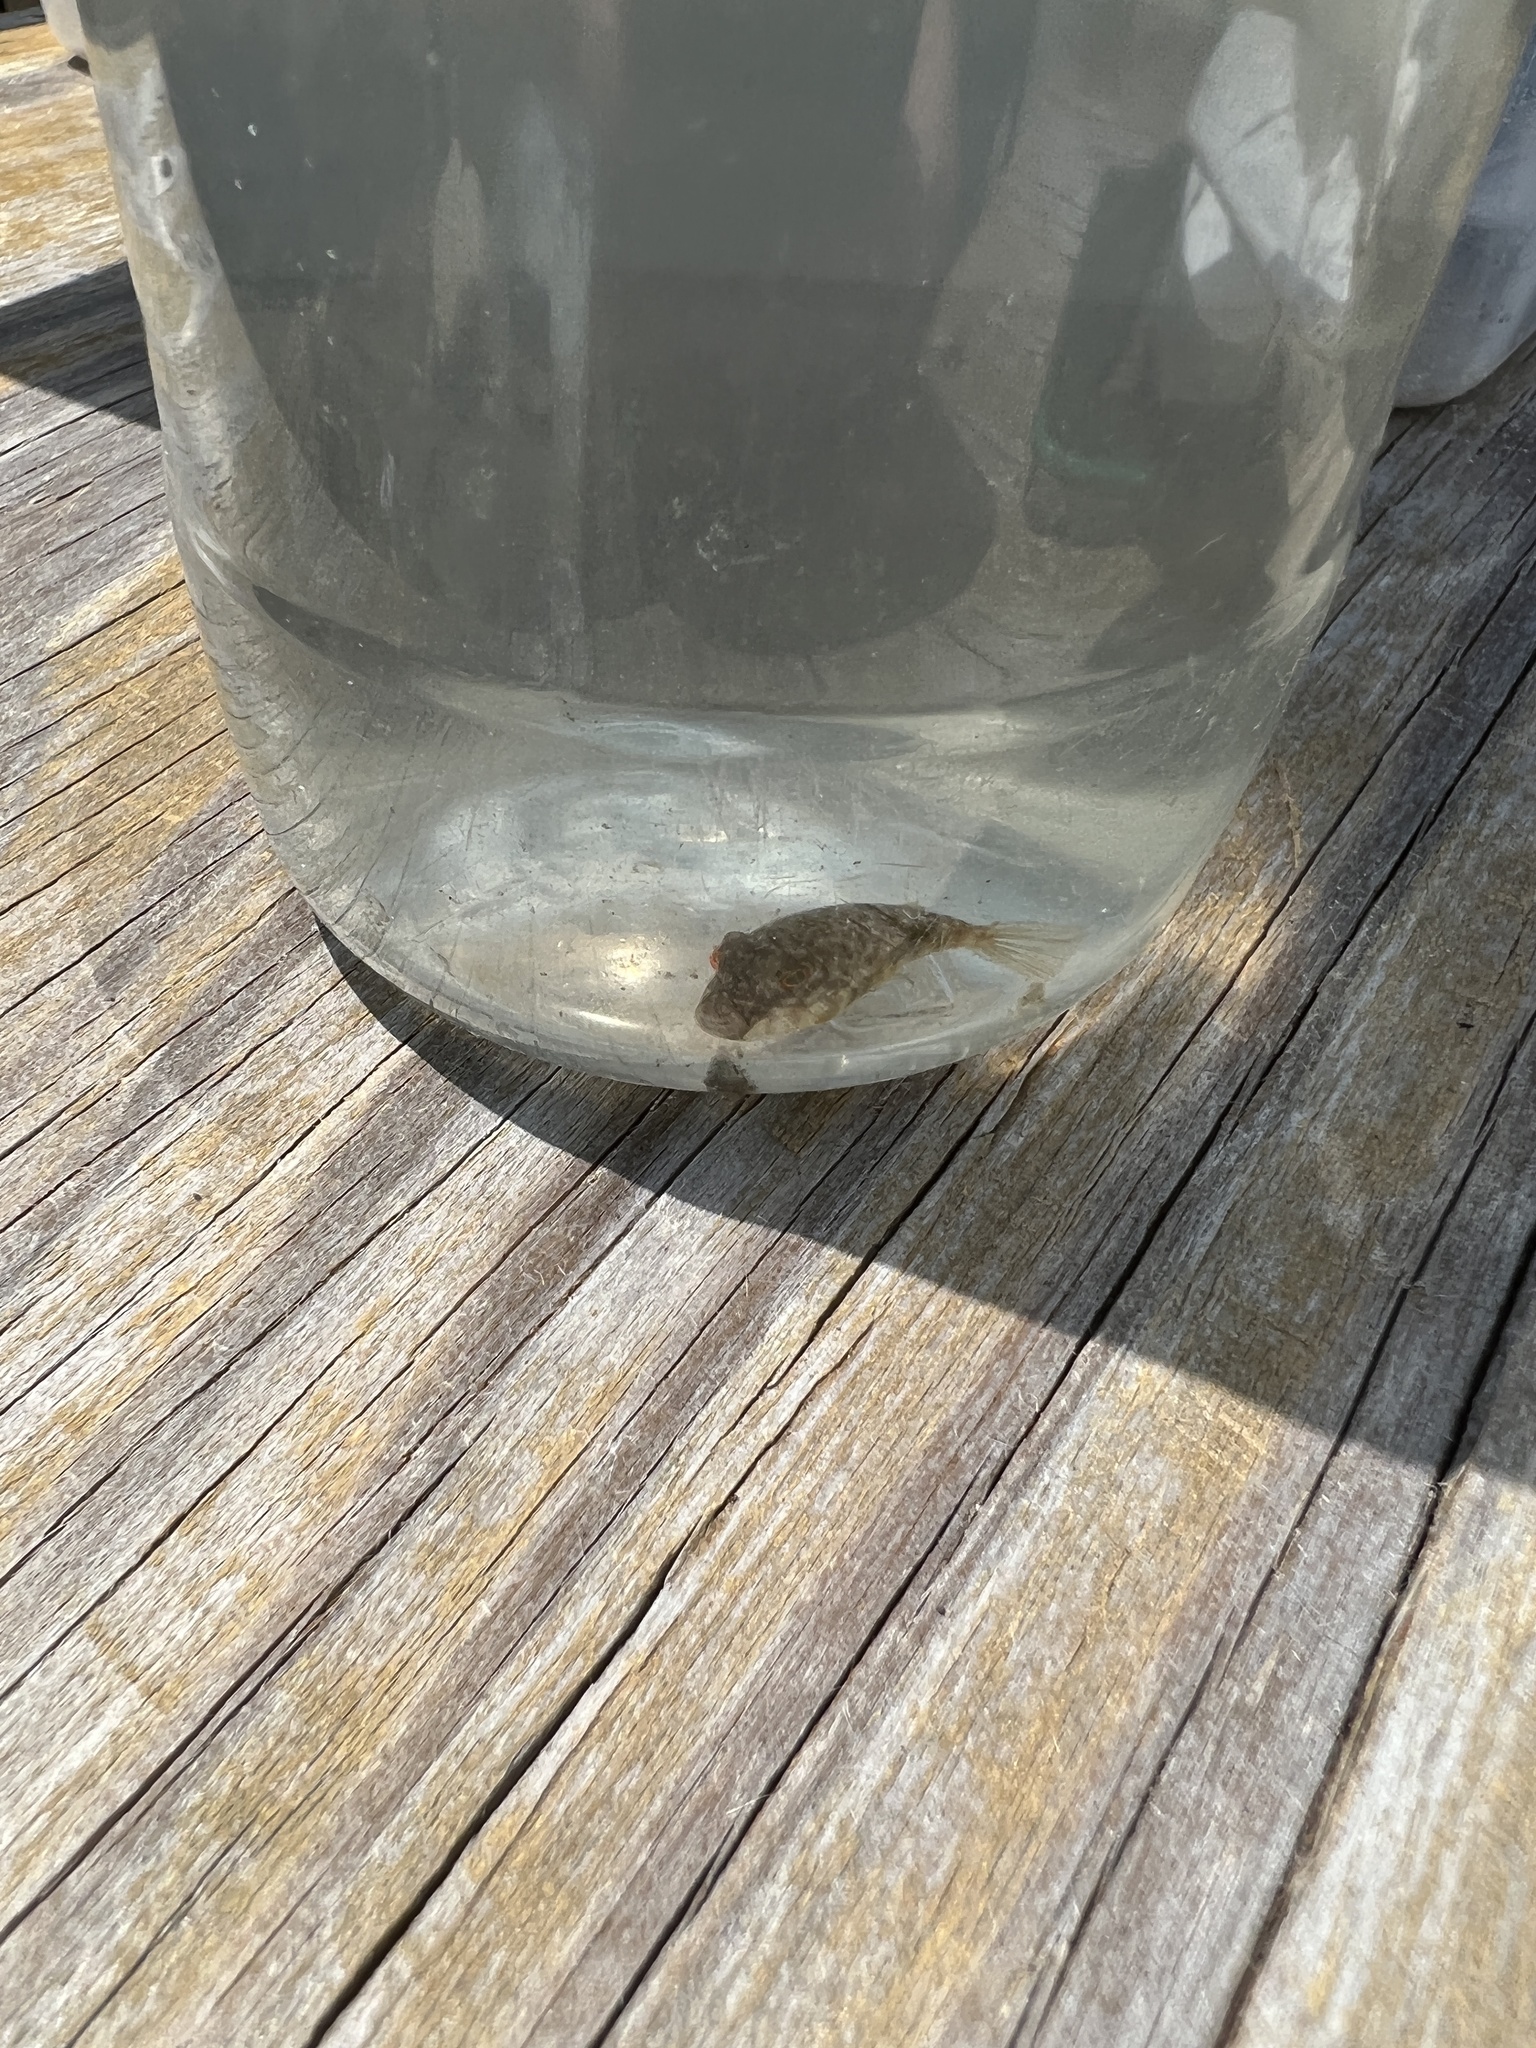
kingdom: Animalia
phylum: Chordata
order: Tetraodontiformes
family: Tetraodontidae
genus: Sphoeroides
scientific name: Sphoeroides nephelus
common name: Southern puffer
